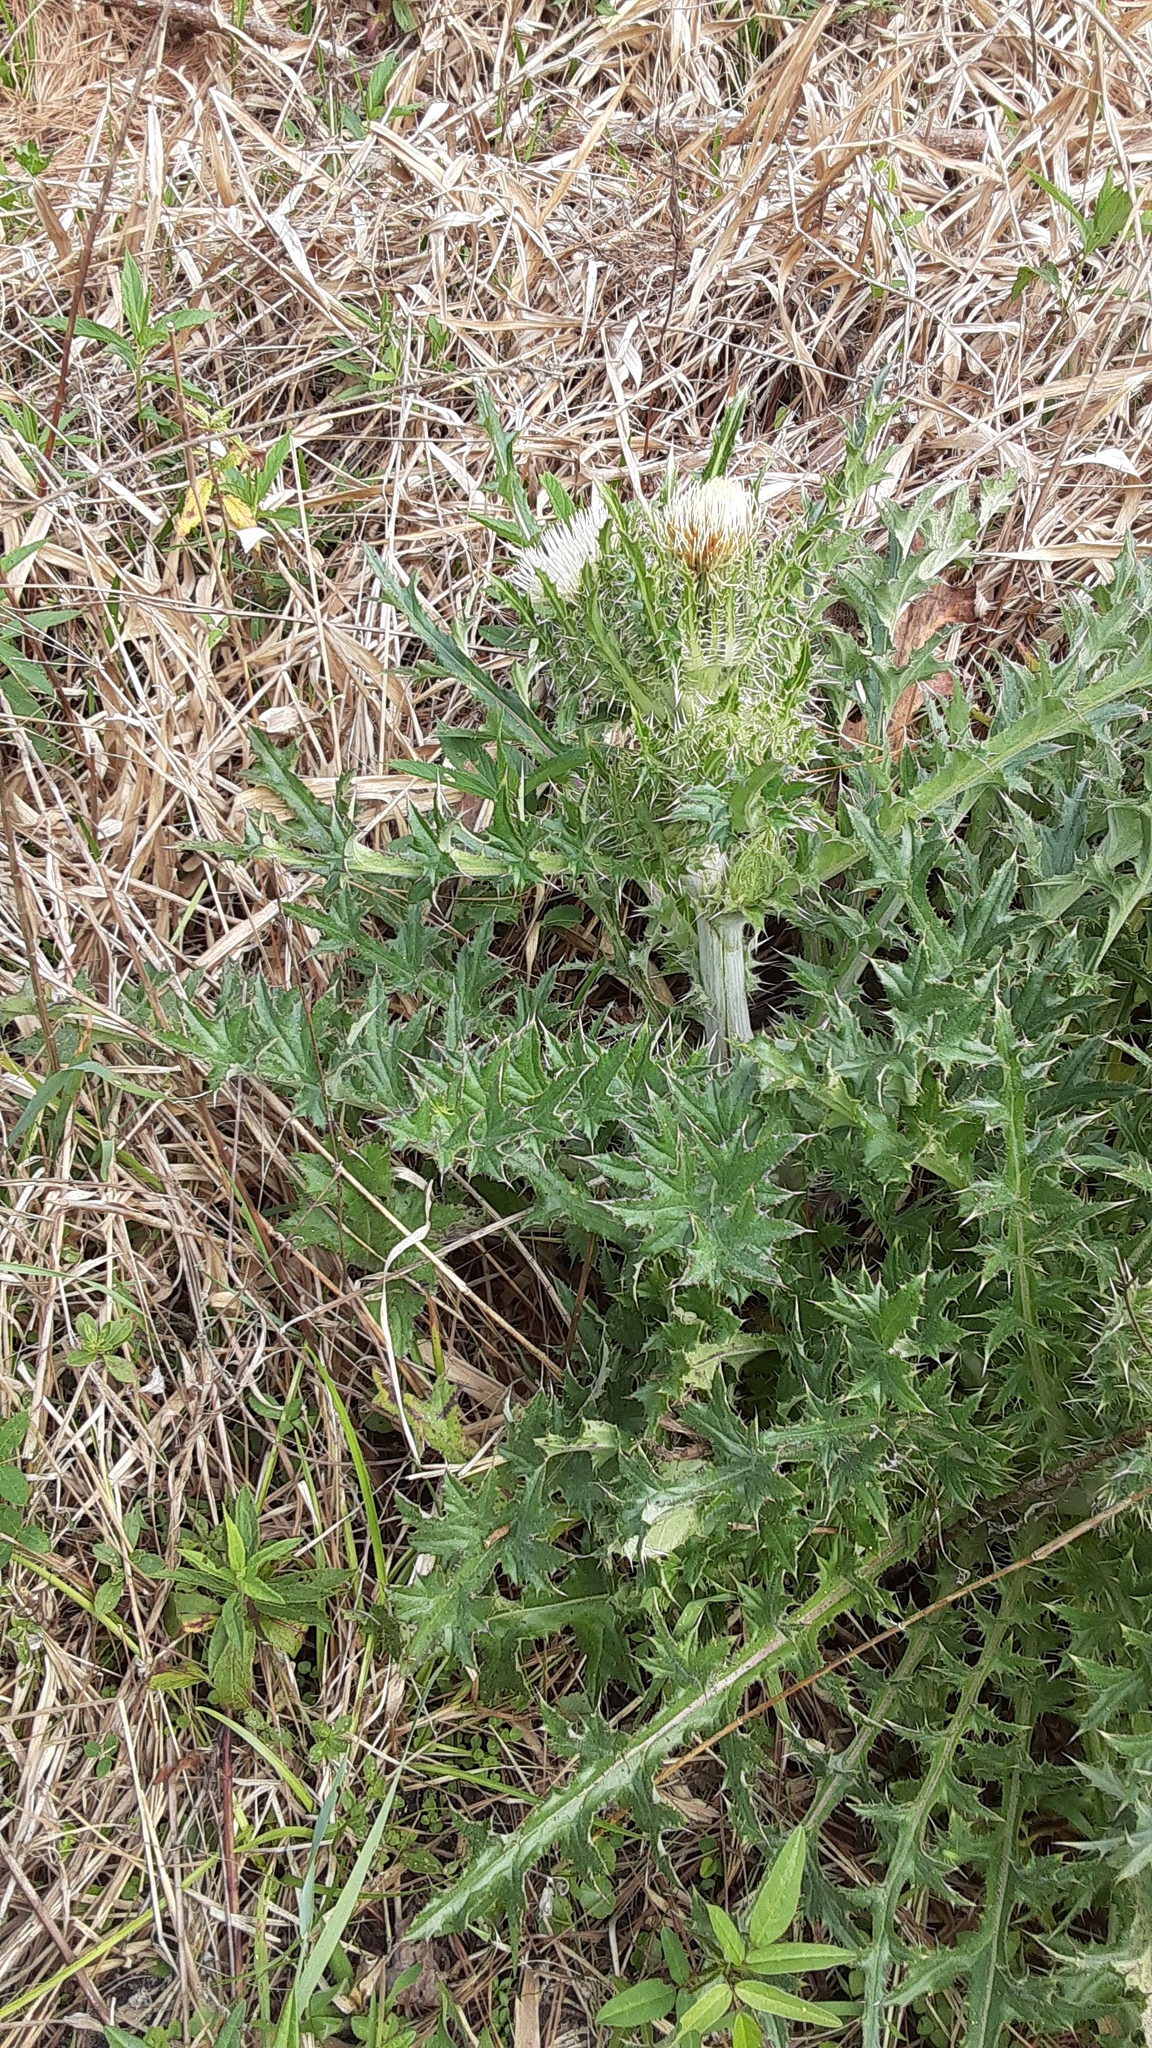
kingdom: Plantae
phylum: Tracheophyta
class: Magnoliopsida
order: Asterales
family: Asteraceae
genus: Cirsium
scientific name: Cirsium horridulum
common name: Bristly thistle
